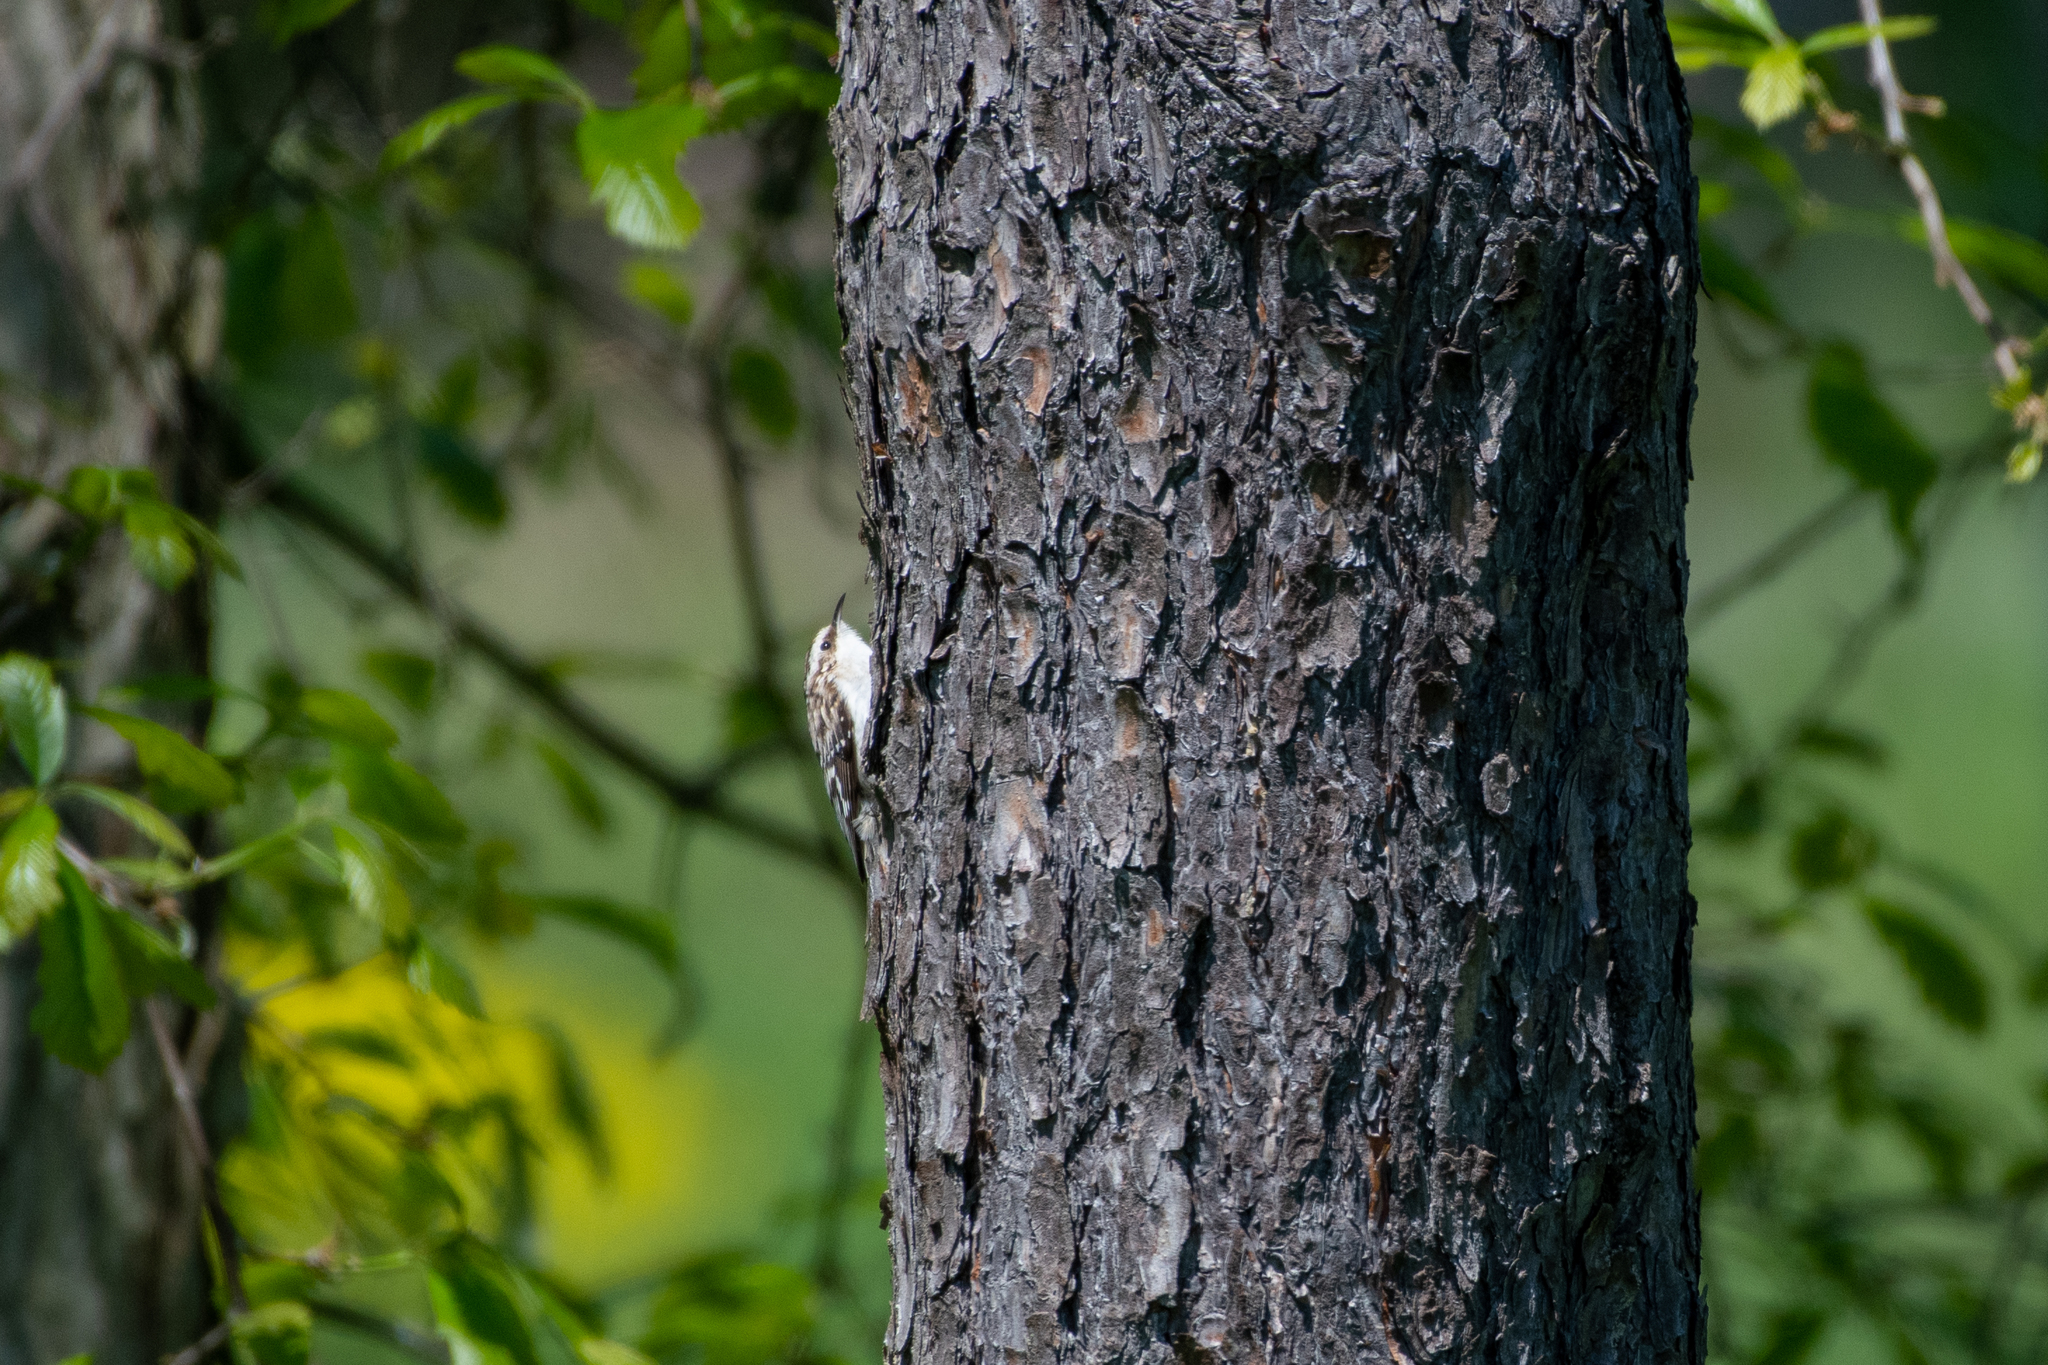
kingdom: Animalia
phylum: Chordata
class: Aves
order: Passeriformes
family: Certhiidae
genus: Certhia
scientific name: Certhia americana
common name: Brown creeper
